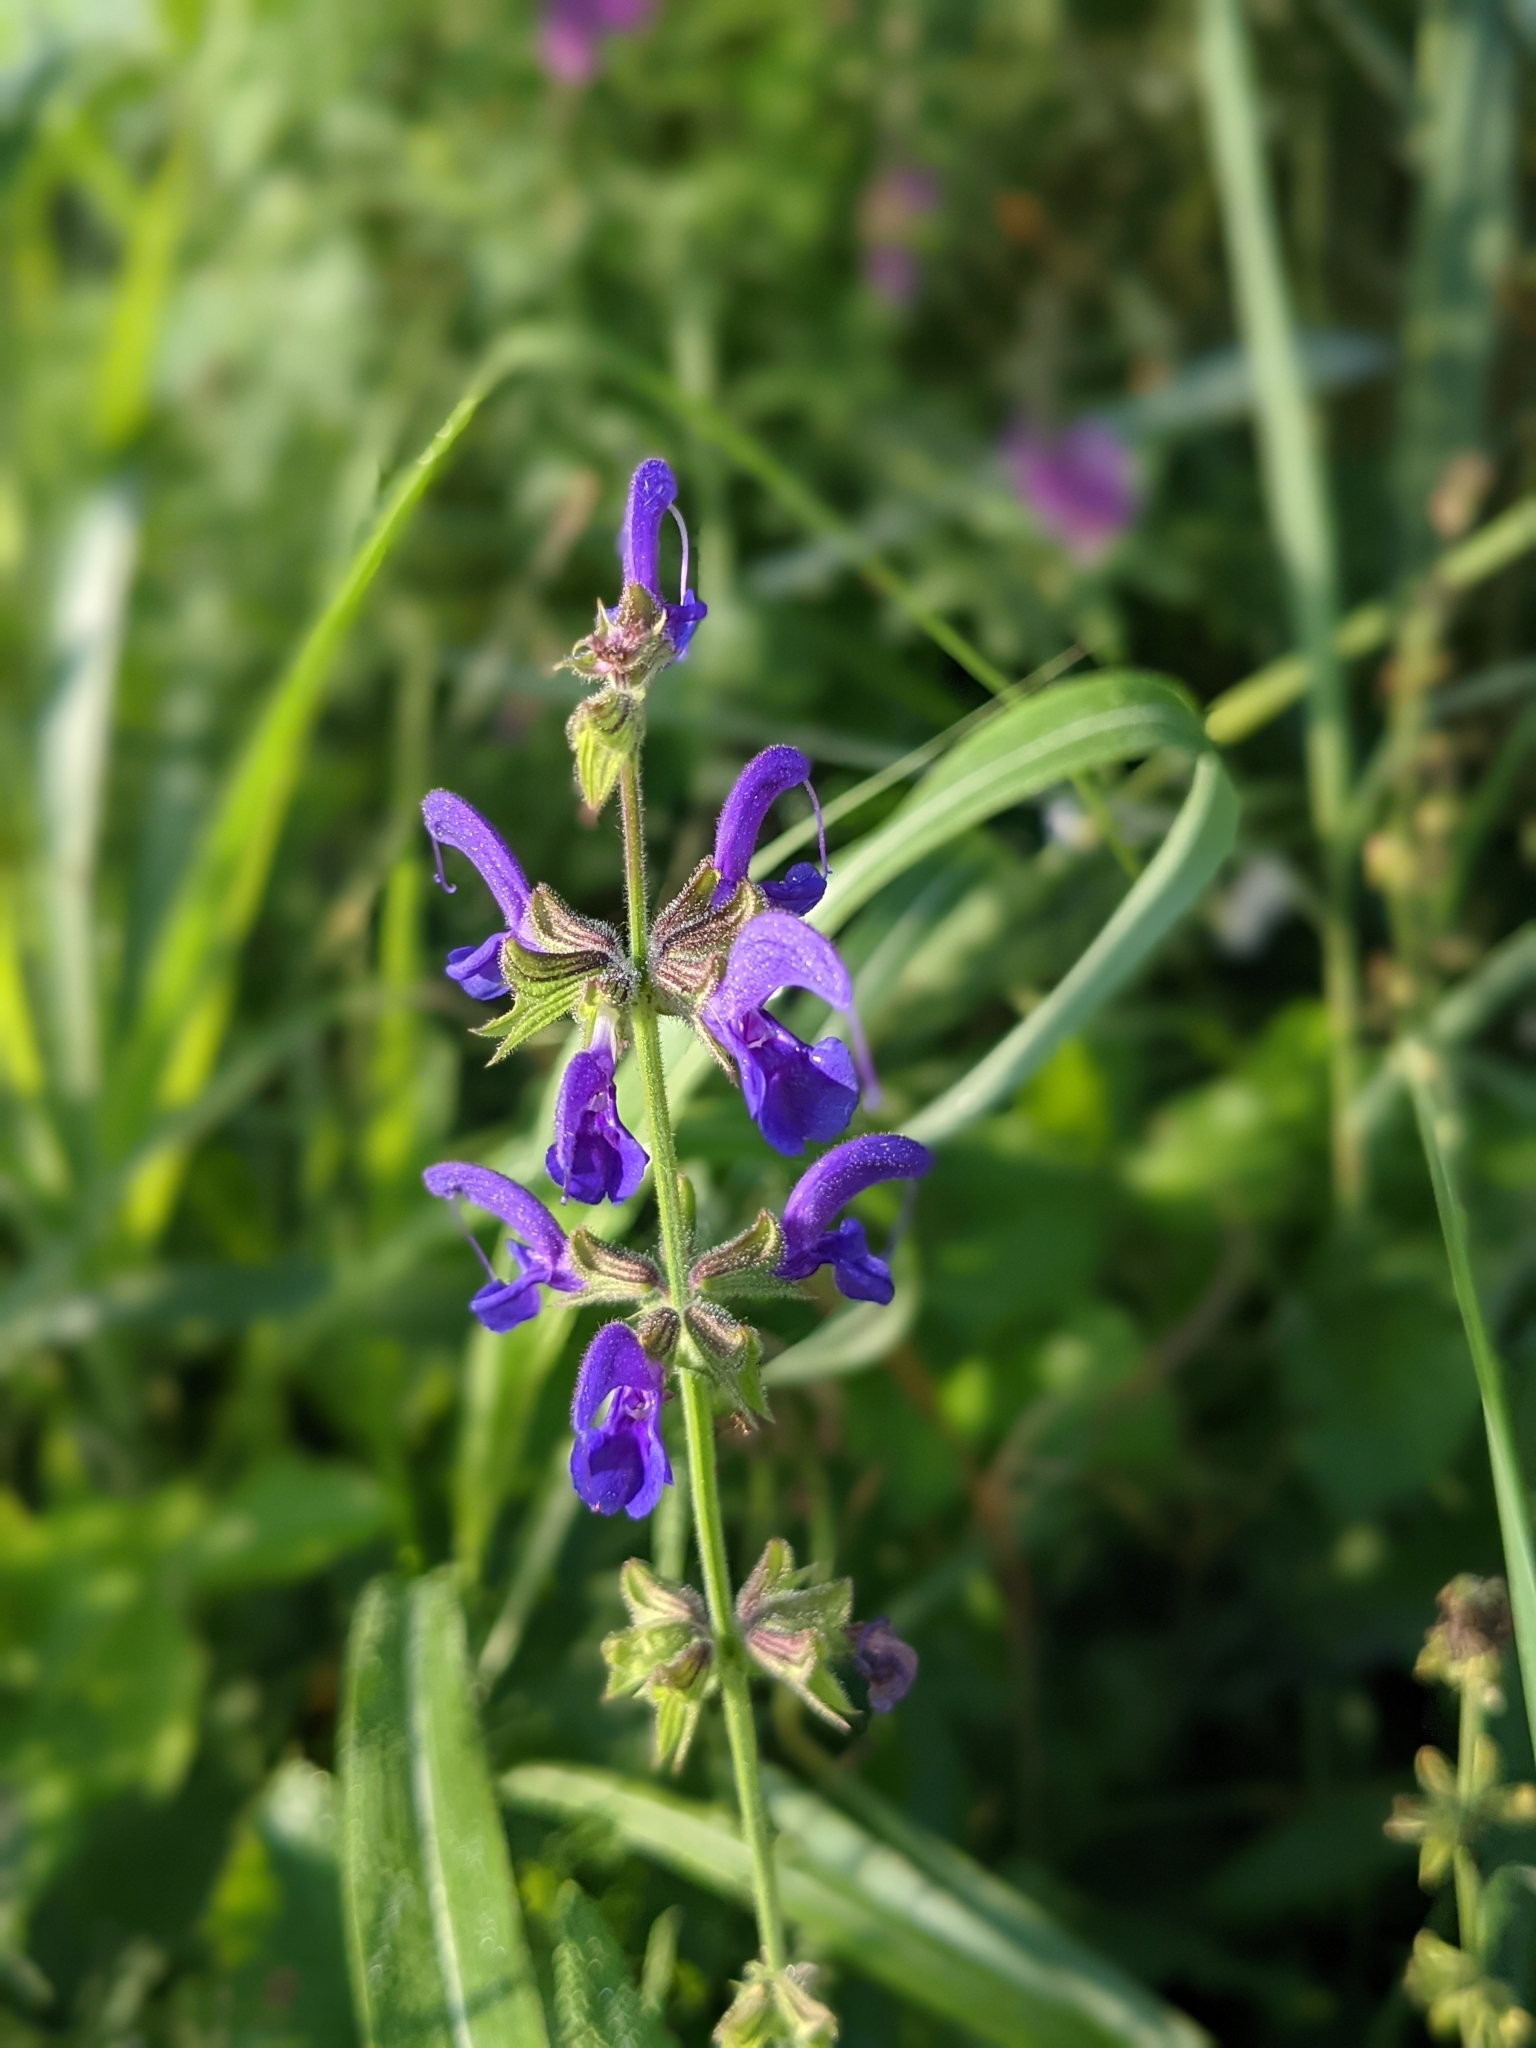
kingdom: Plantae
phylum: Tracheophyta
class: Magnoliopsida
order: Lamiales
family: Lamiaceae
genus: Salvia
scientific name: Salvia pratensis
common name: Meadow sage
